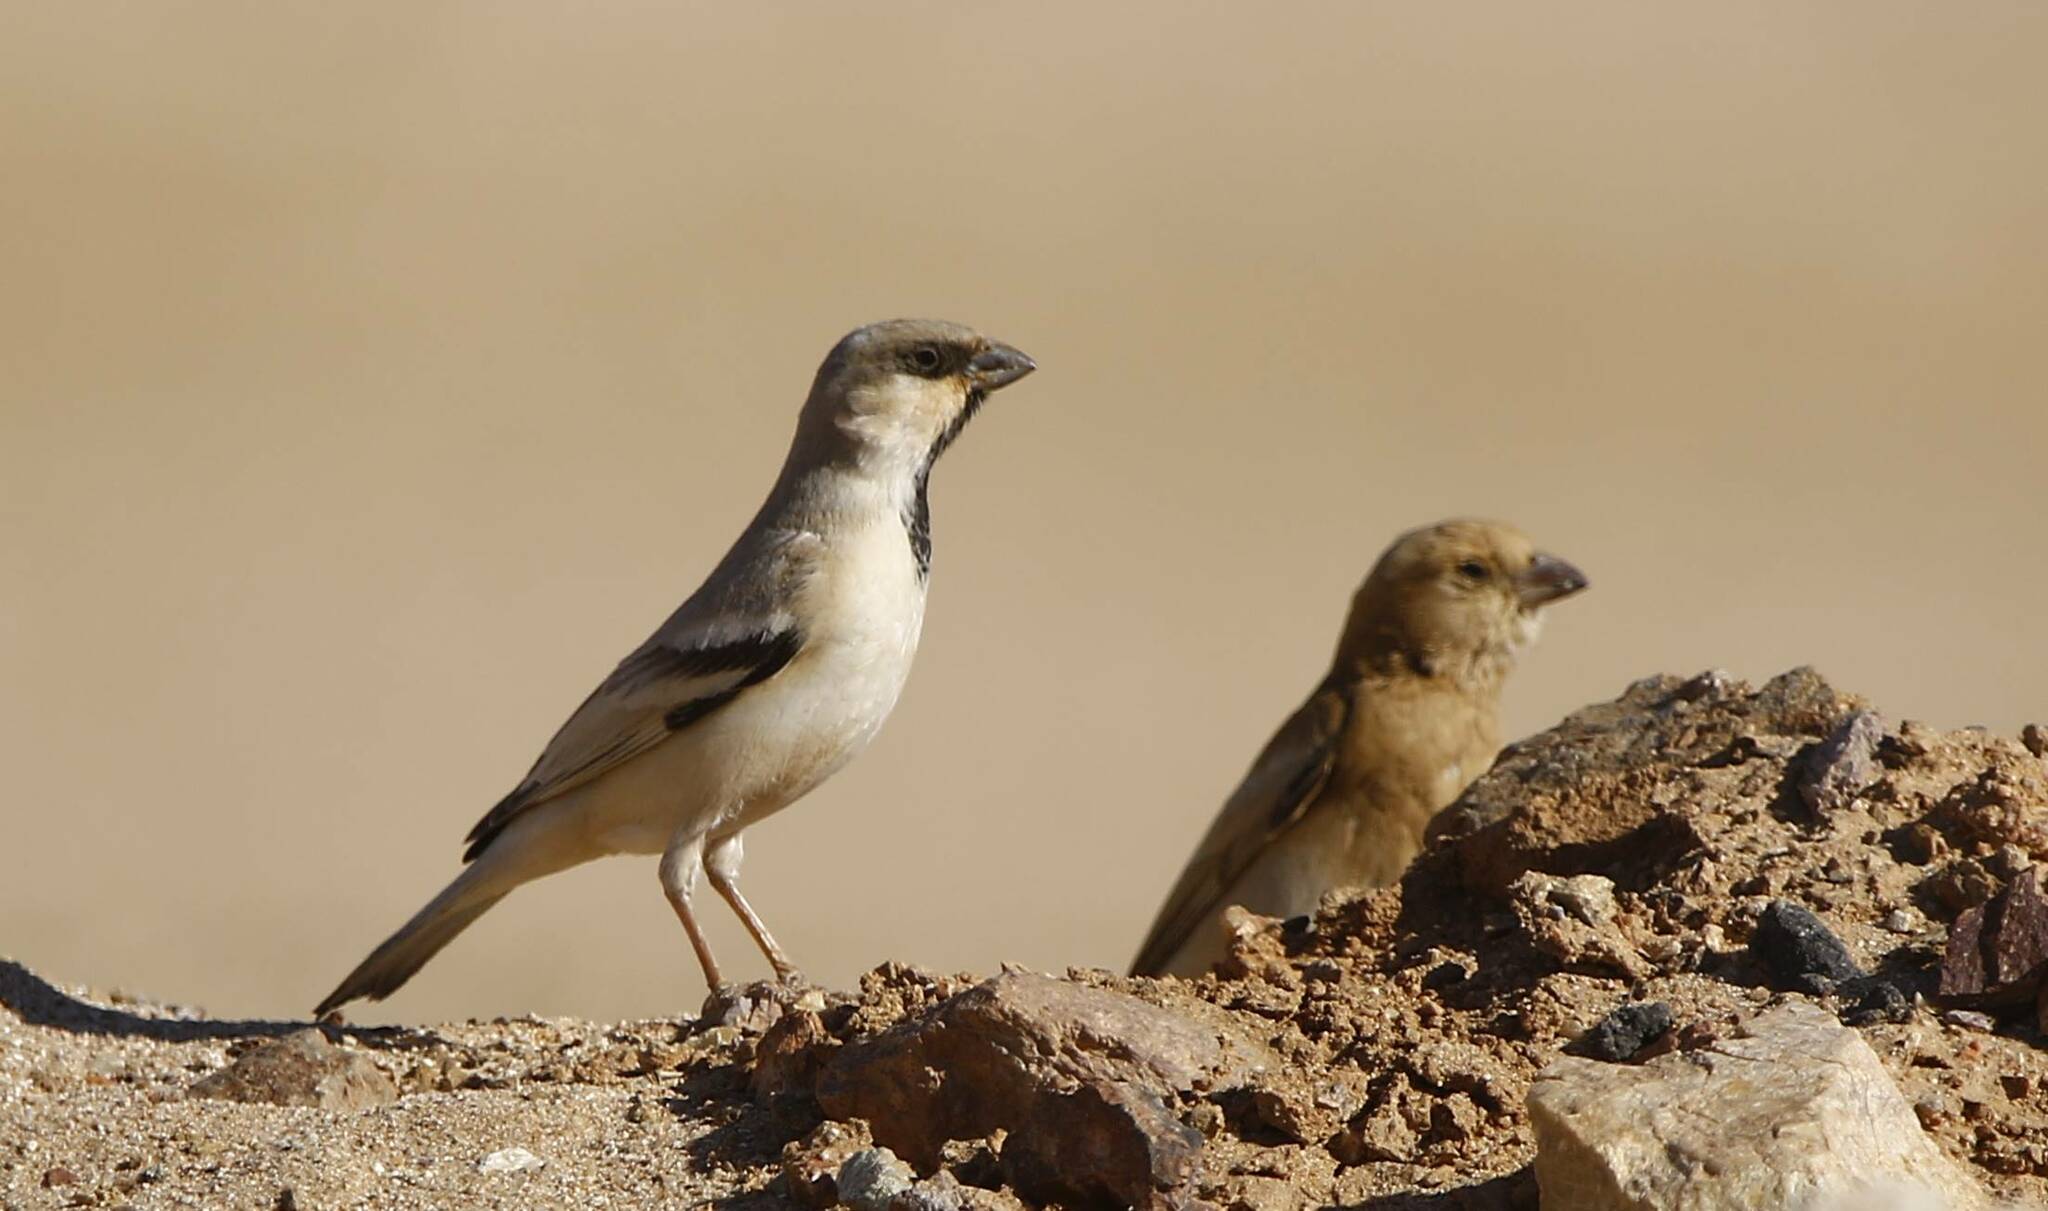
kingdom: Animalia
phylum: Chordata
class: Aves
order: Passeriformes
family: Passeridae
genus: Passer
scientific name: Passer simplex
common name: Desert sparrow
